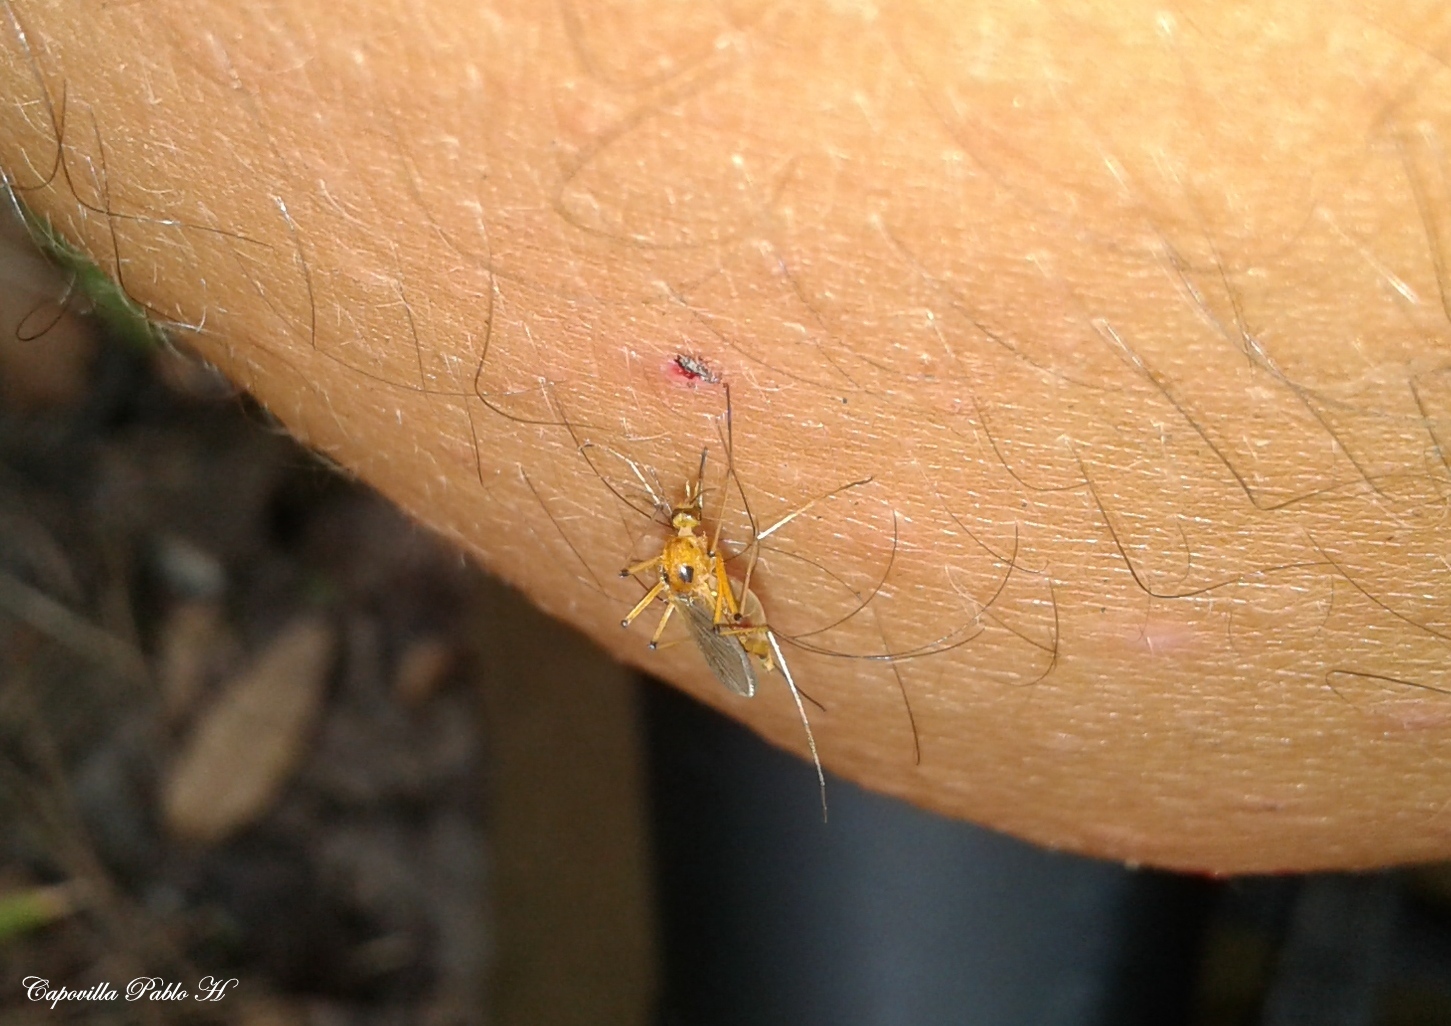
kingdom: Animalia
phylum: Arthropoda
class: Insecta
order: Diptera
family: Culicidae
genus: Aedes
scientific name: Aedes stigmaticus
